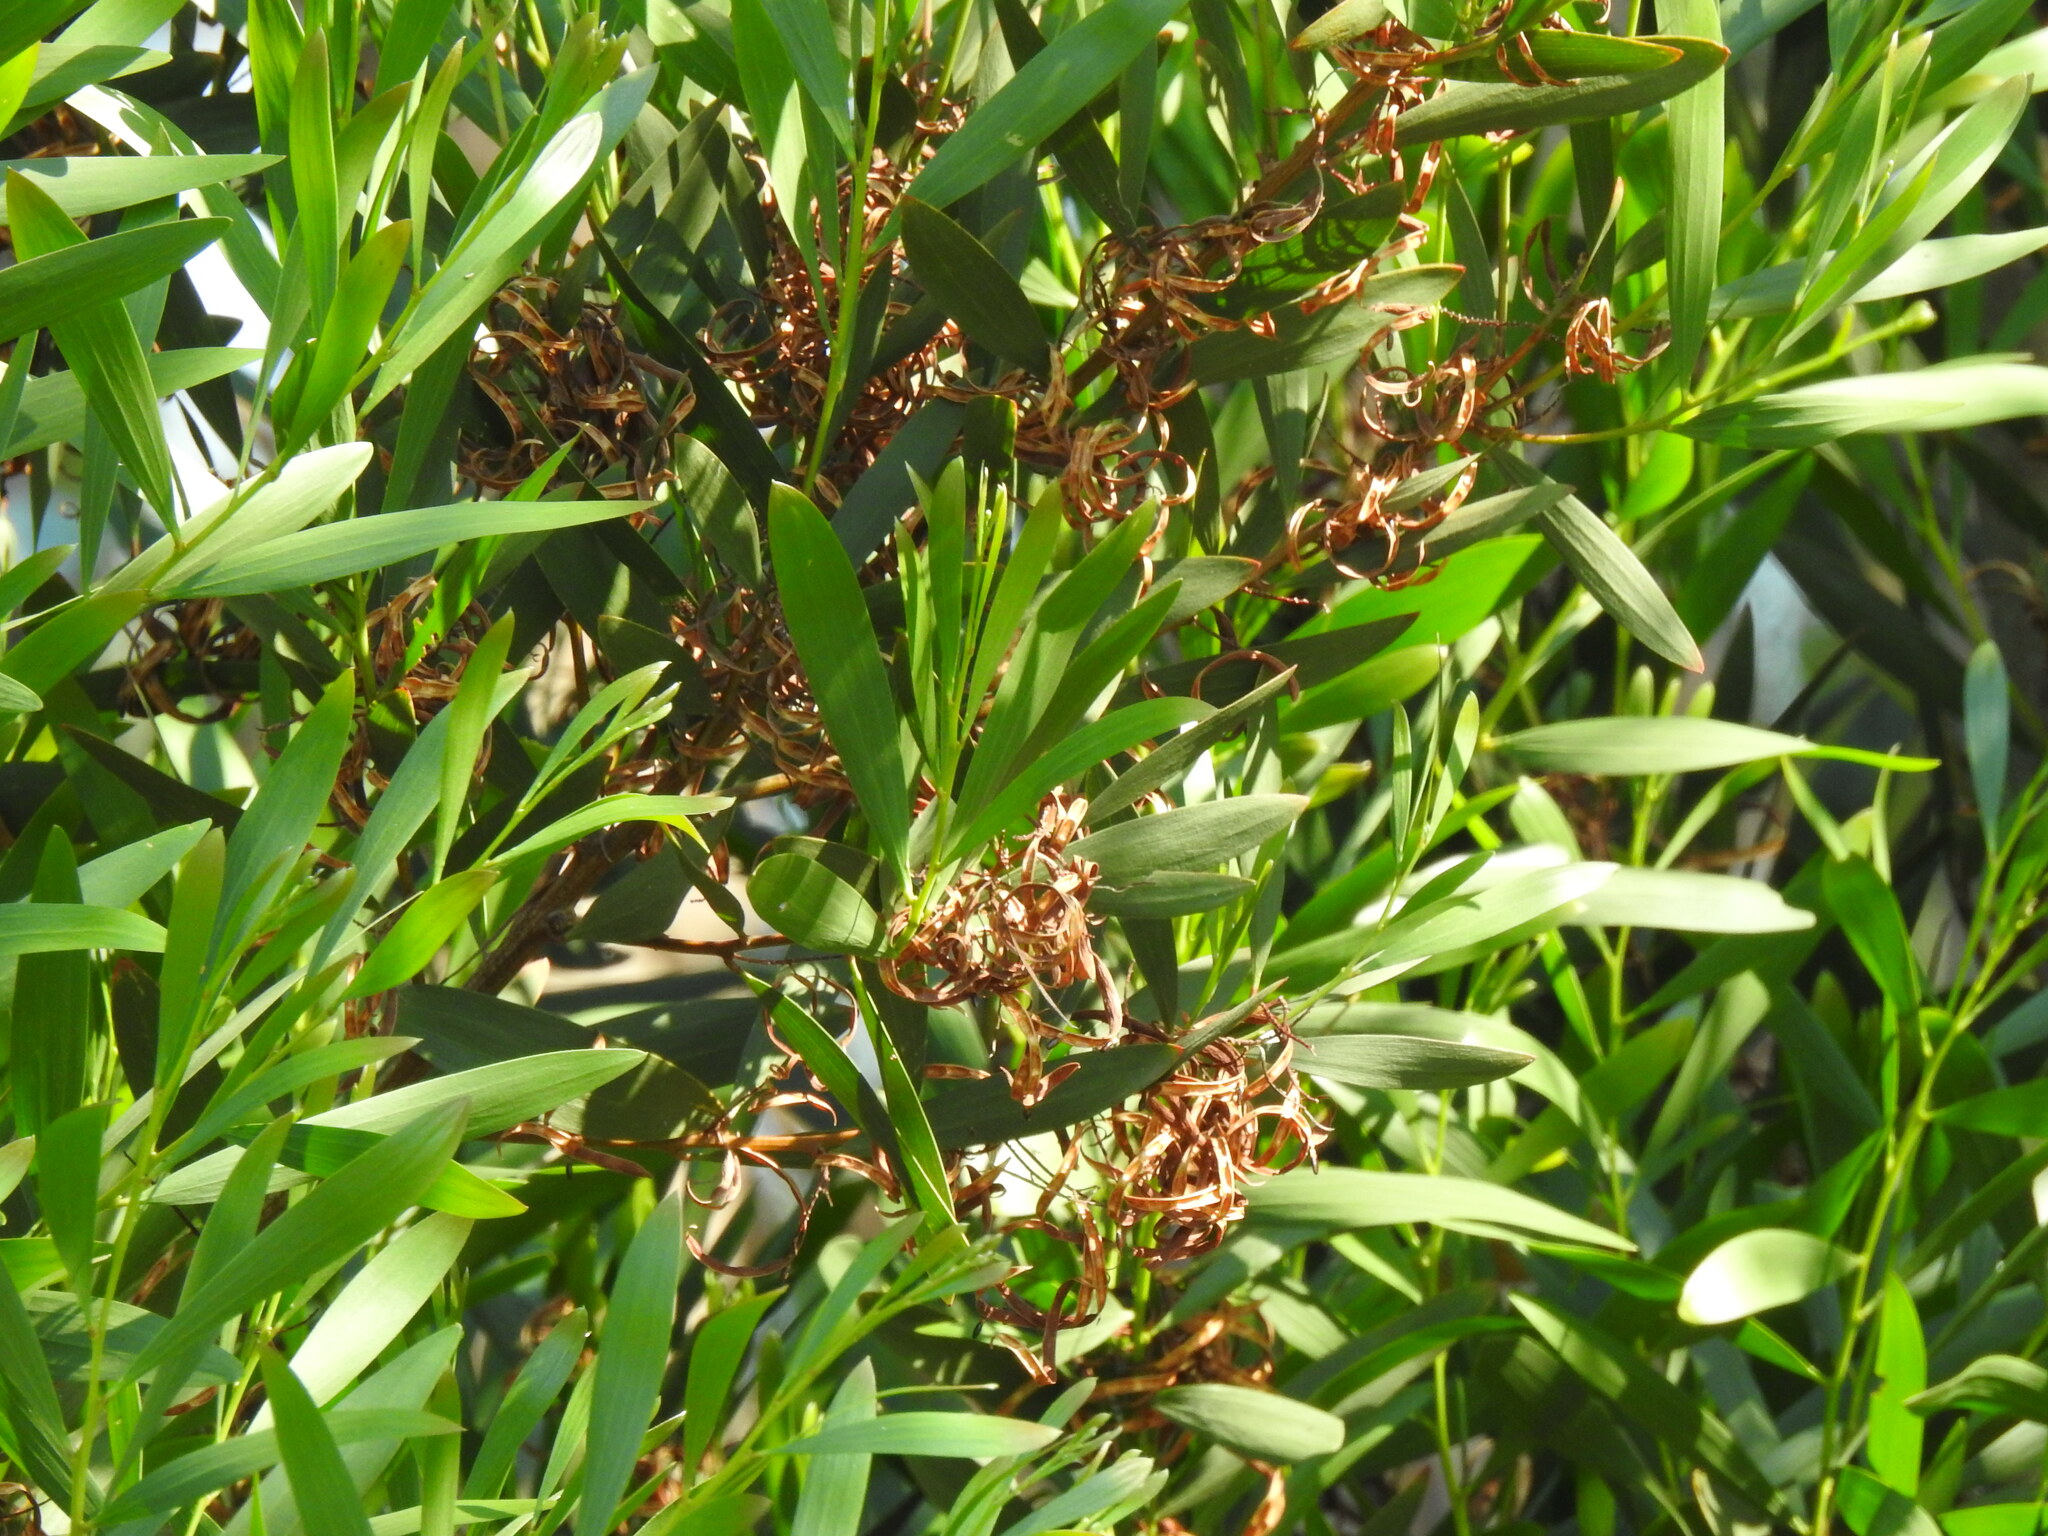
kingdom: Plantae
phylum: Tracheophyta
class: Magnoliopsida
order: Fabales
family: Fabaceae
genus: Acacia
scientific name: Acacia longifolia
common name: Sydney golden wattle
